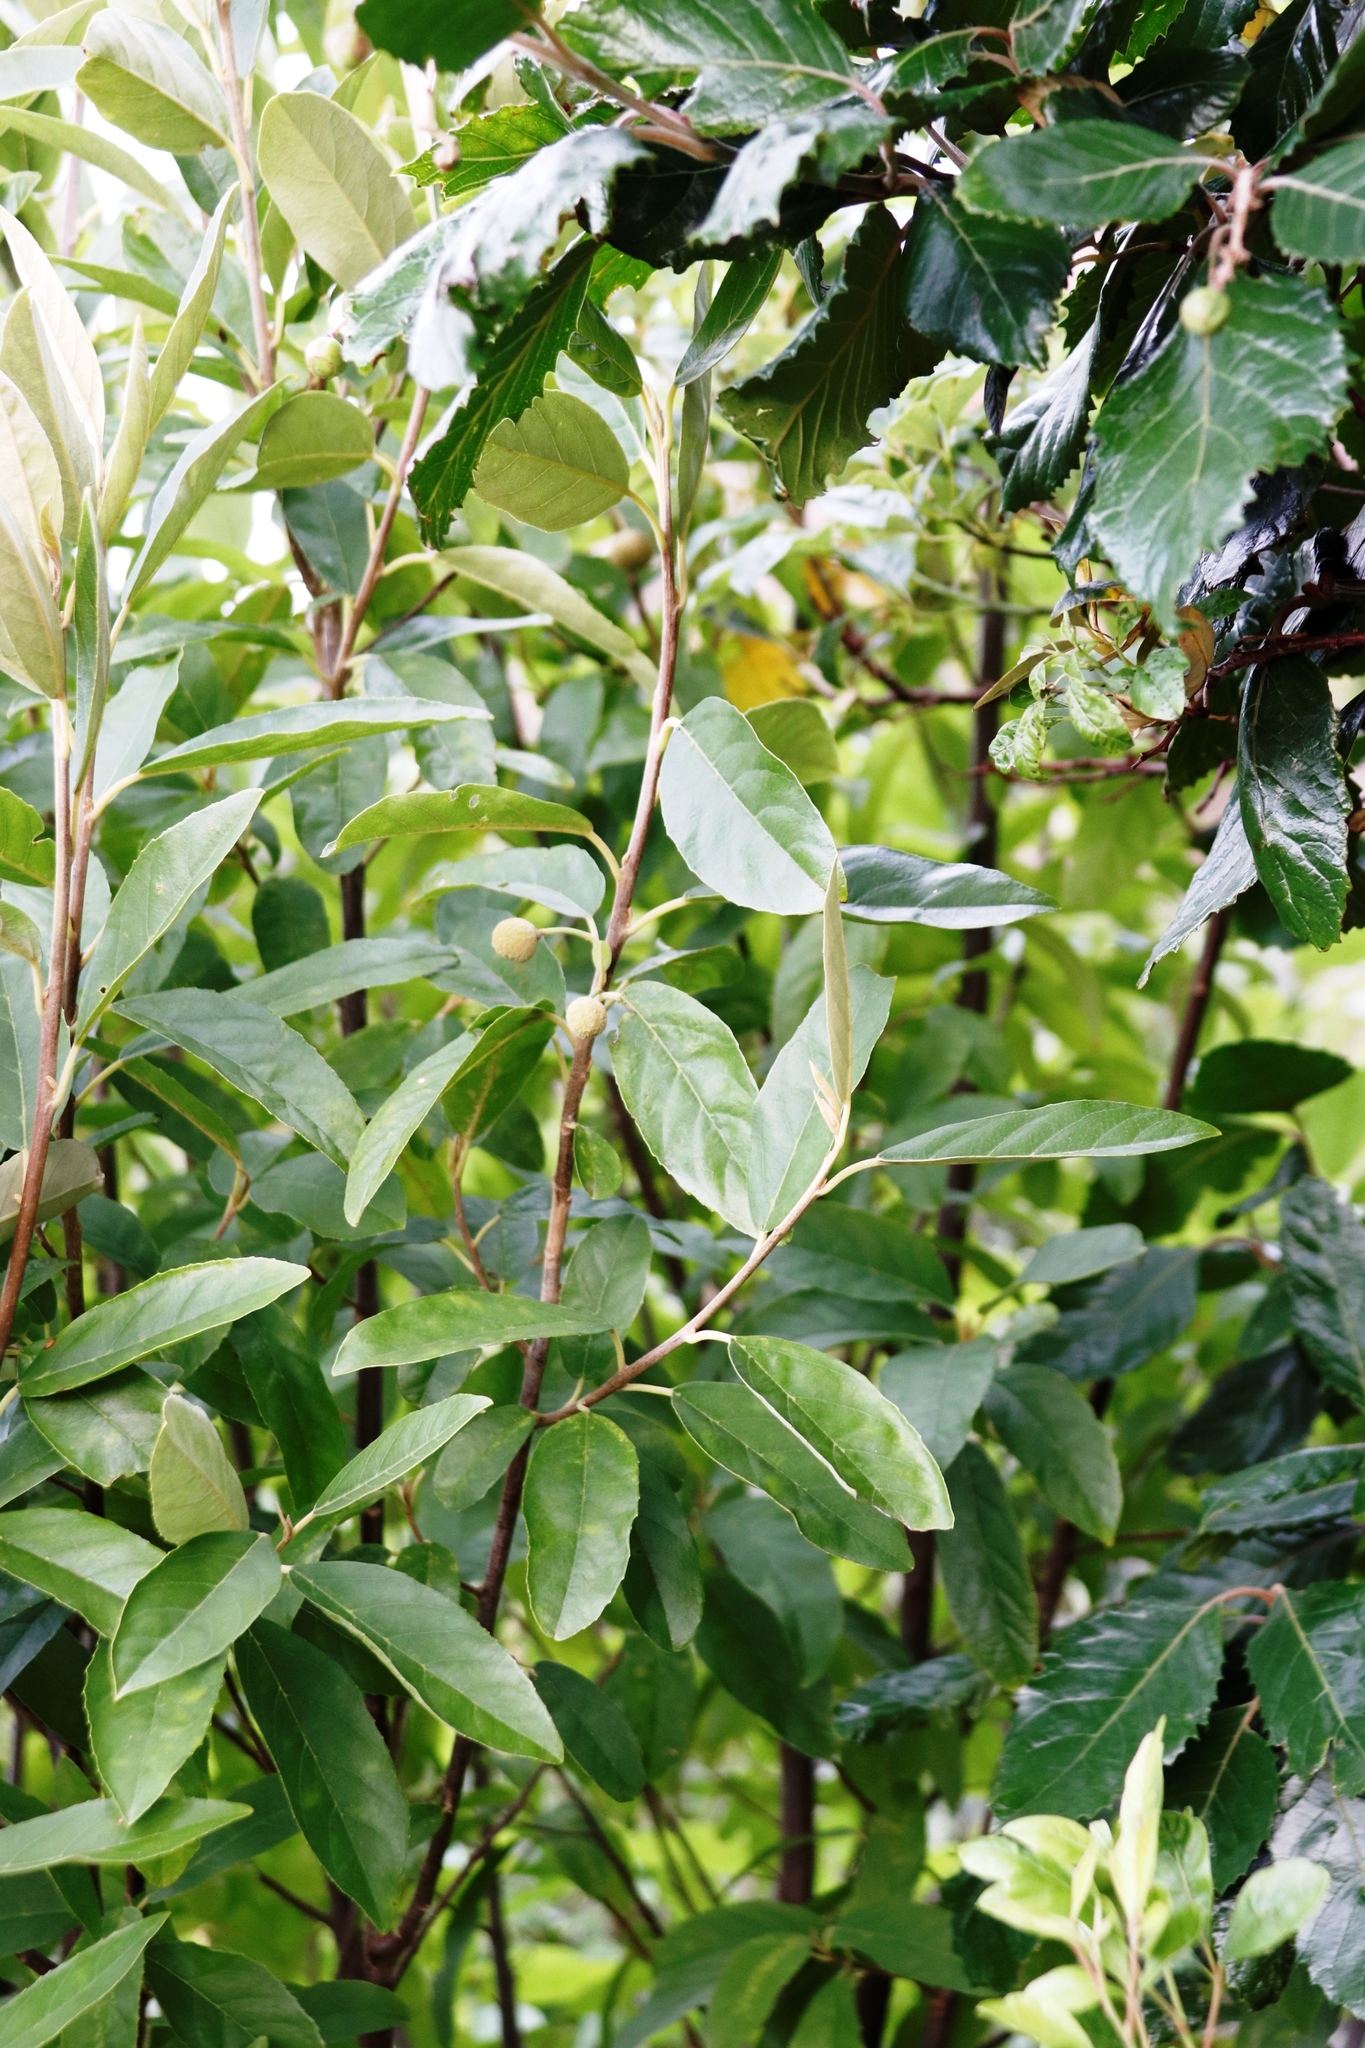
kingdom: Plantae
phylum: Tracheophyta
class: Magnoliopsida
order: Malpighiales
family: Achariaceae
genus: Kiggelaria
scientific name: Kiggelaria africana
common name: Wild peach
